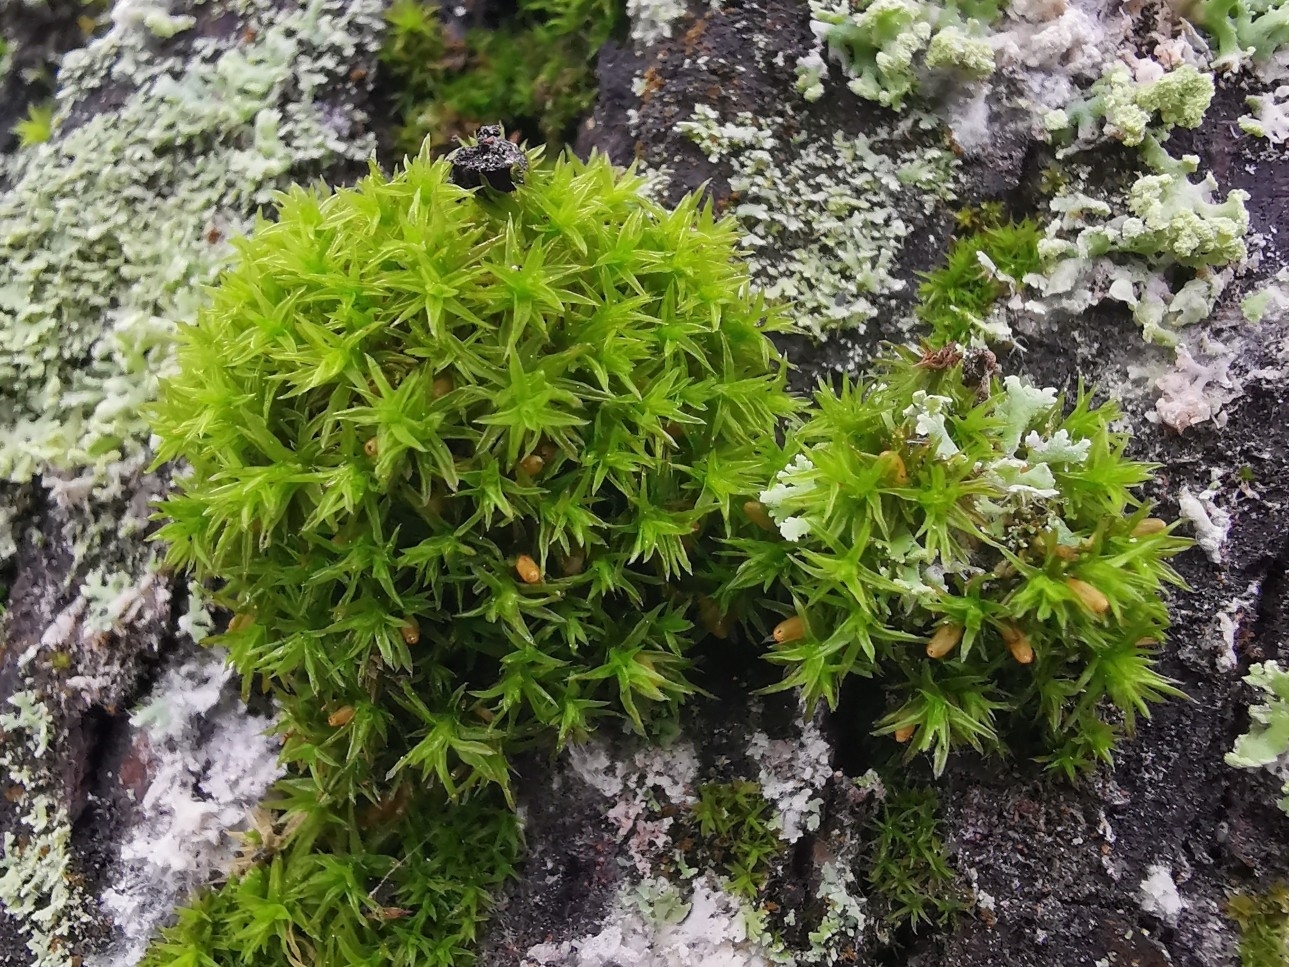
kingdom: Plantae
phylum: Bryophyta
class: Bryopsida
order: Orthotrichales
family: Orthotrichaceae
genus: Lewinskya
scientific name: Lewinskya affinis
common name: Wood bristle-moss
